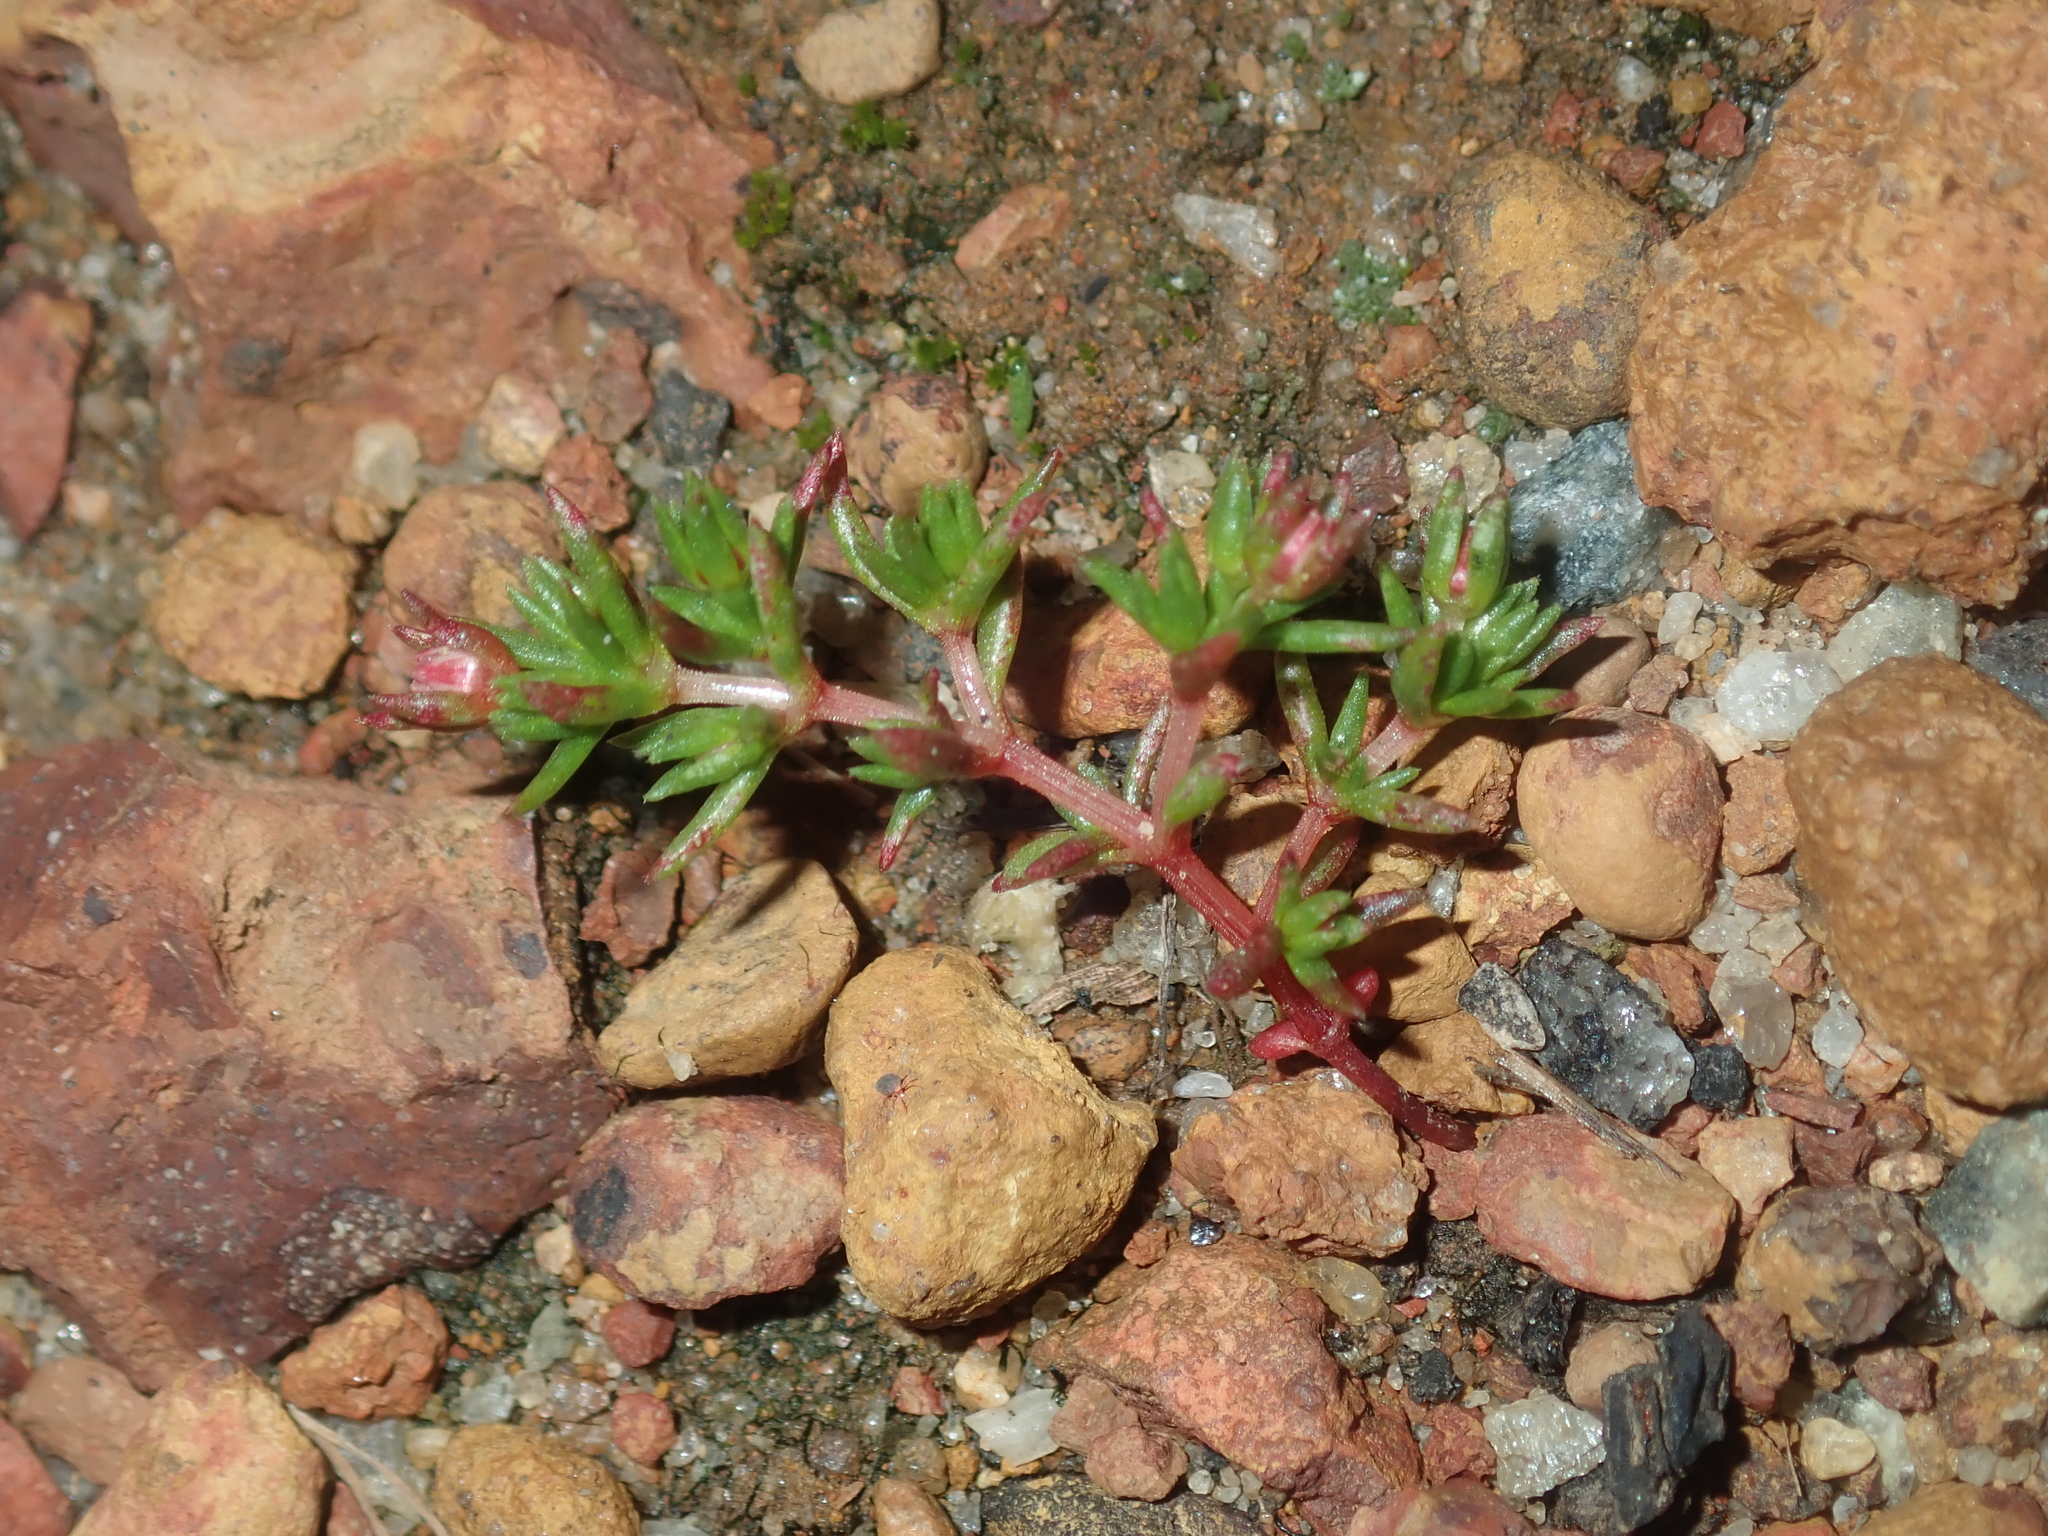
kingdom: Plantae
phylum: Tracheophyta
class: Magnoliopsida
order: Saxifragales
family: Crassulaceae
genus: Crassula
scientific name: Crassula decumbens
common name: Scilly pigmyweed
